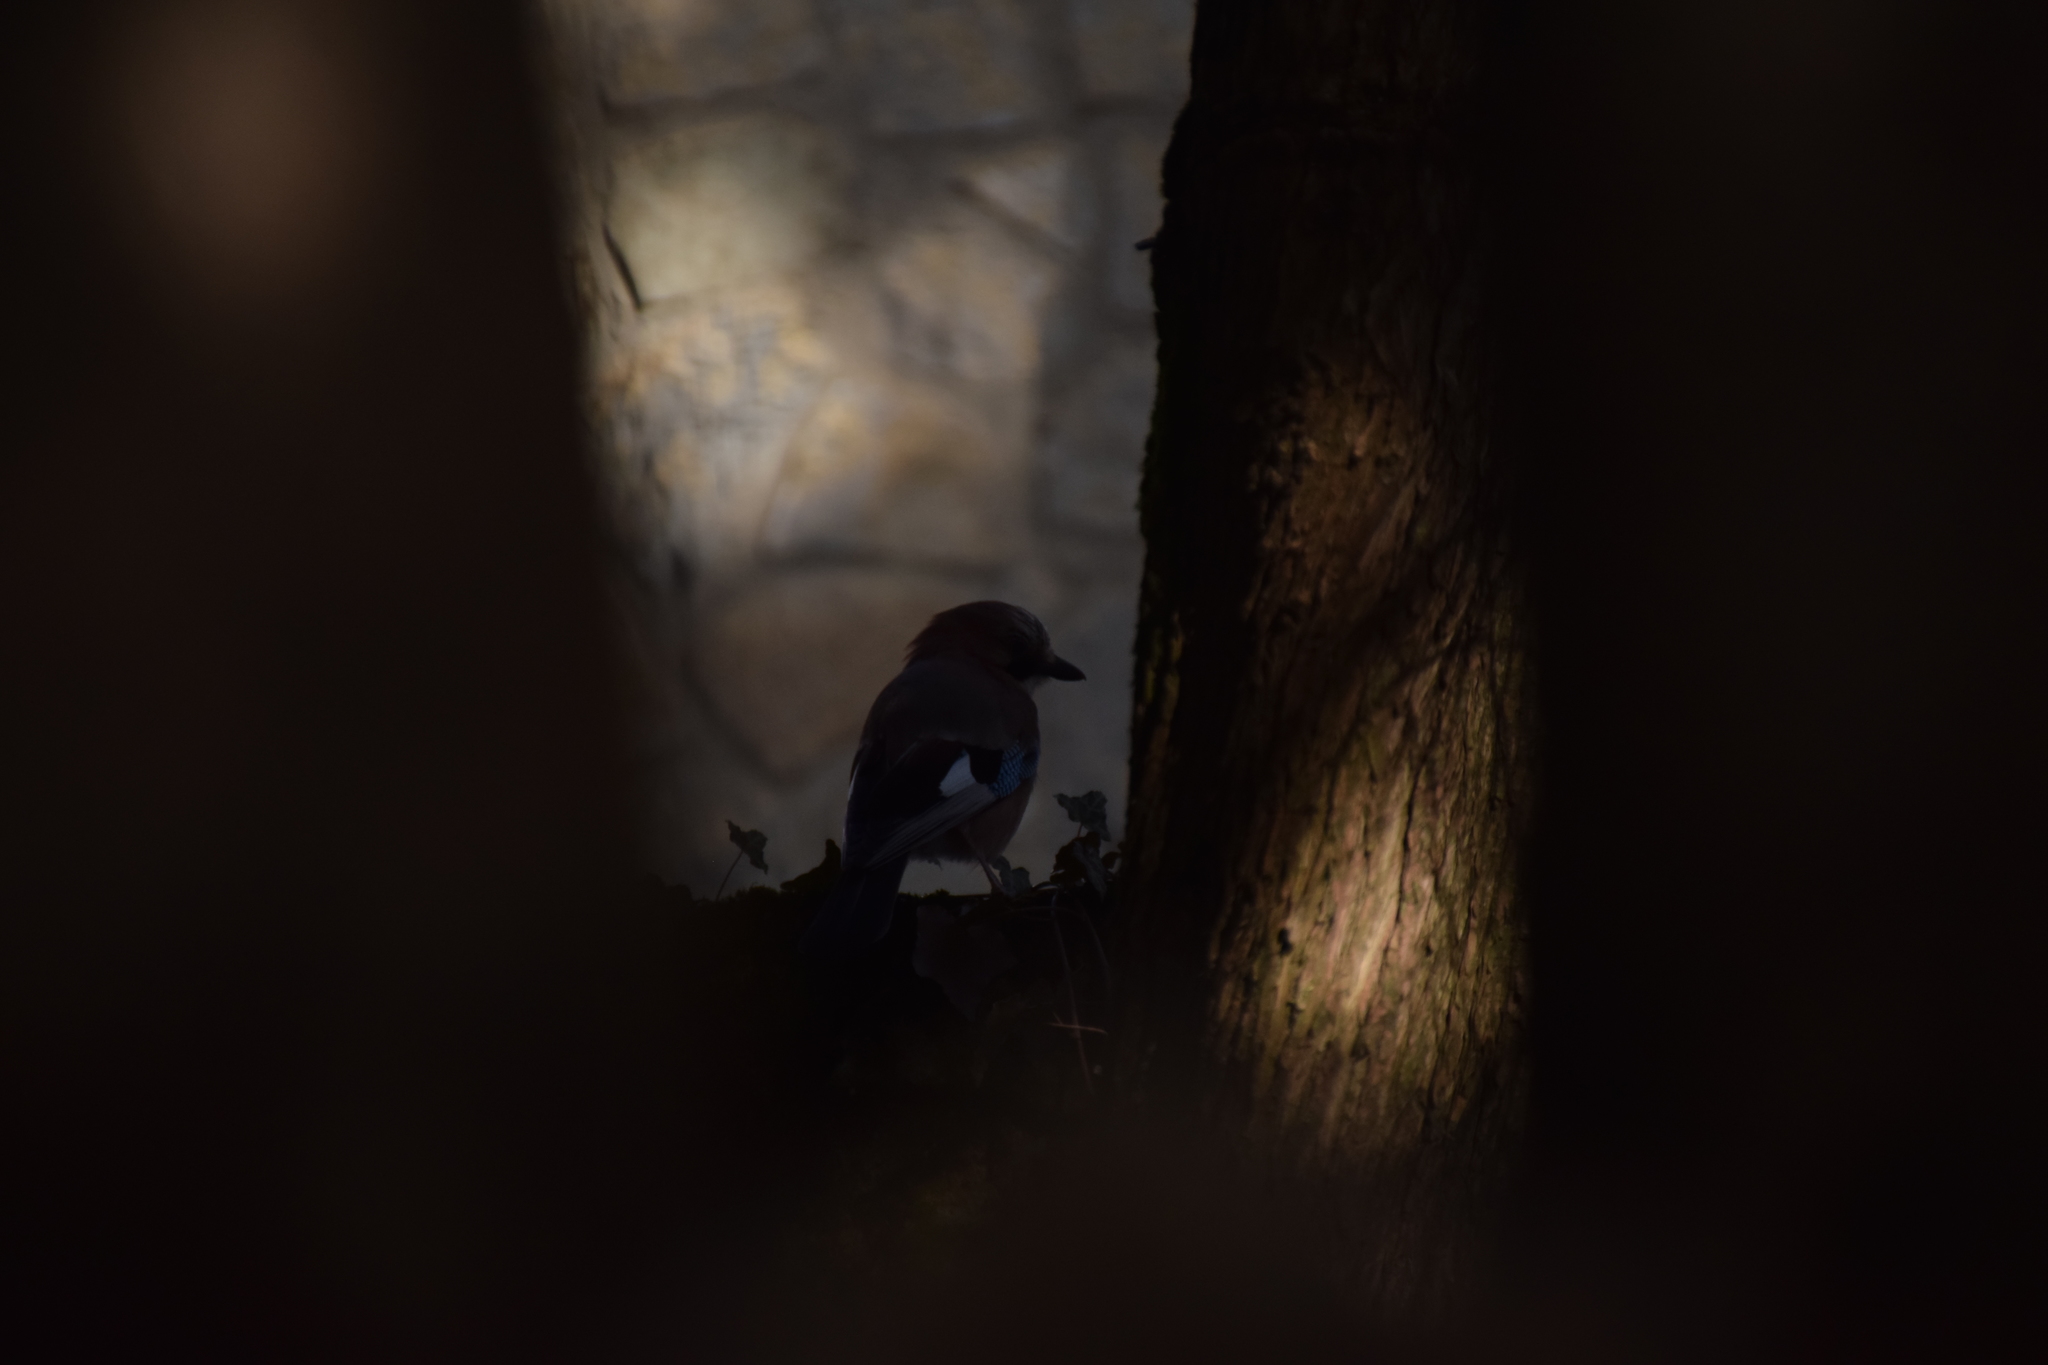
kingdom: Animalia
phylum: Chordata
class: Aves
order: Passeriformes
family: Corvidae
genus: Garrulus
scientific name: Garrulus glandarius
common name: Eurasian jay
